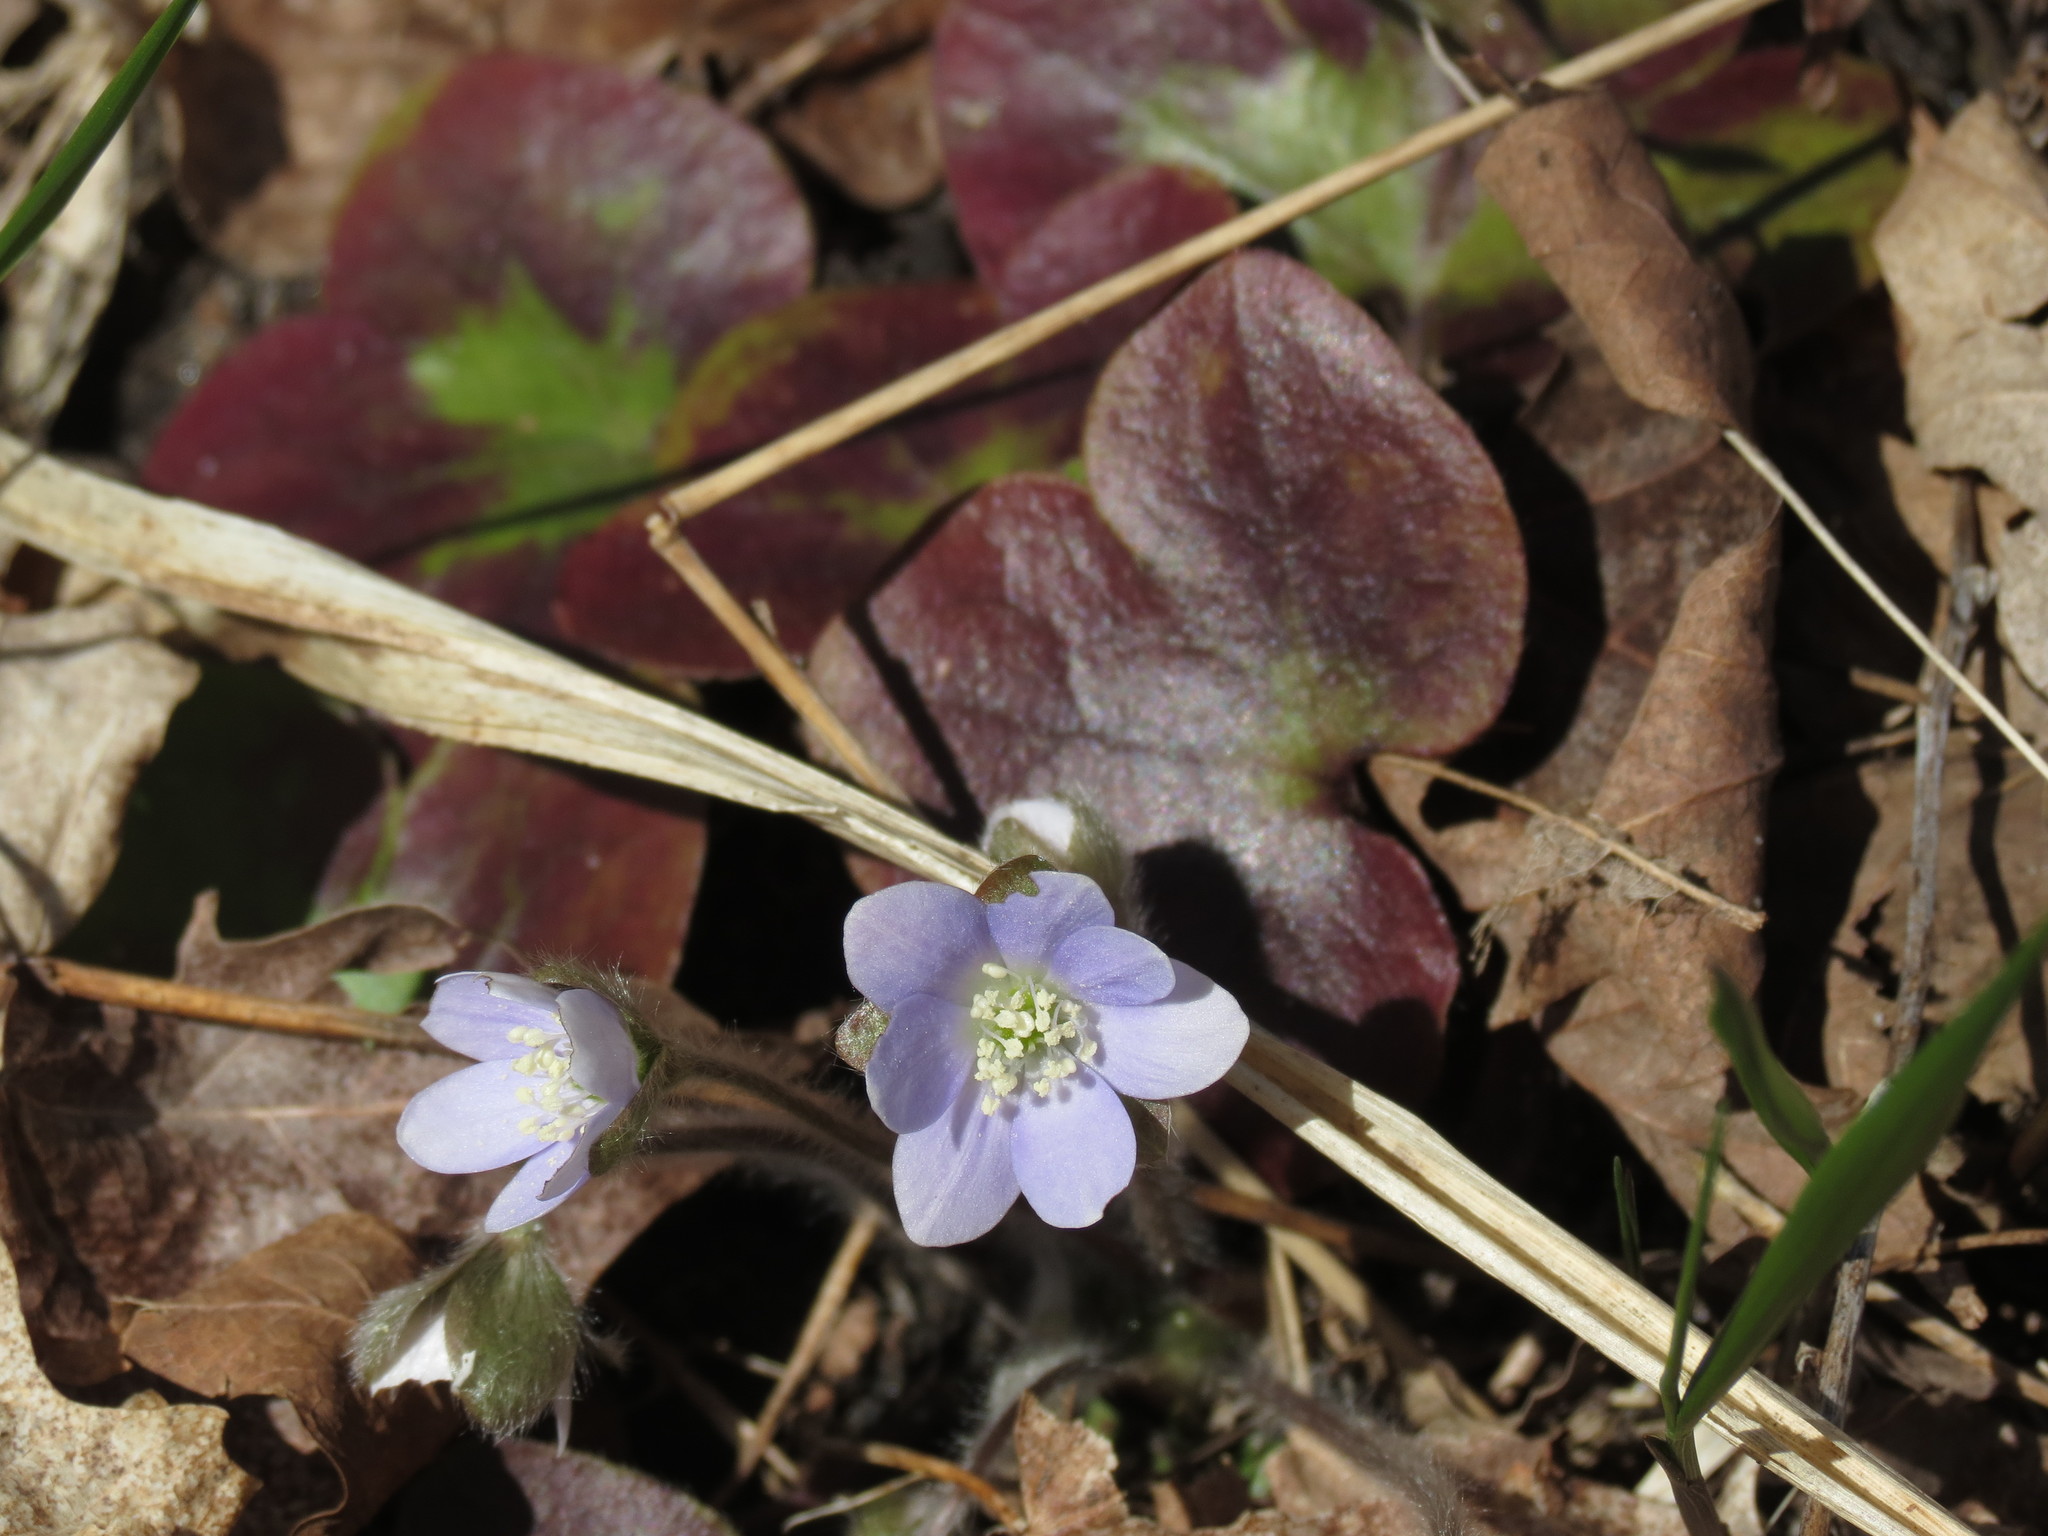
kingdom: Plantae
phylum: Tracheophyta
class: Magnoliopsida
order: Ranunculales
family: Ranunculaceae
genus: Hepatica
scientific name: Hepatica americana
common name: American hepatica
